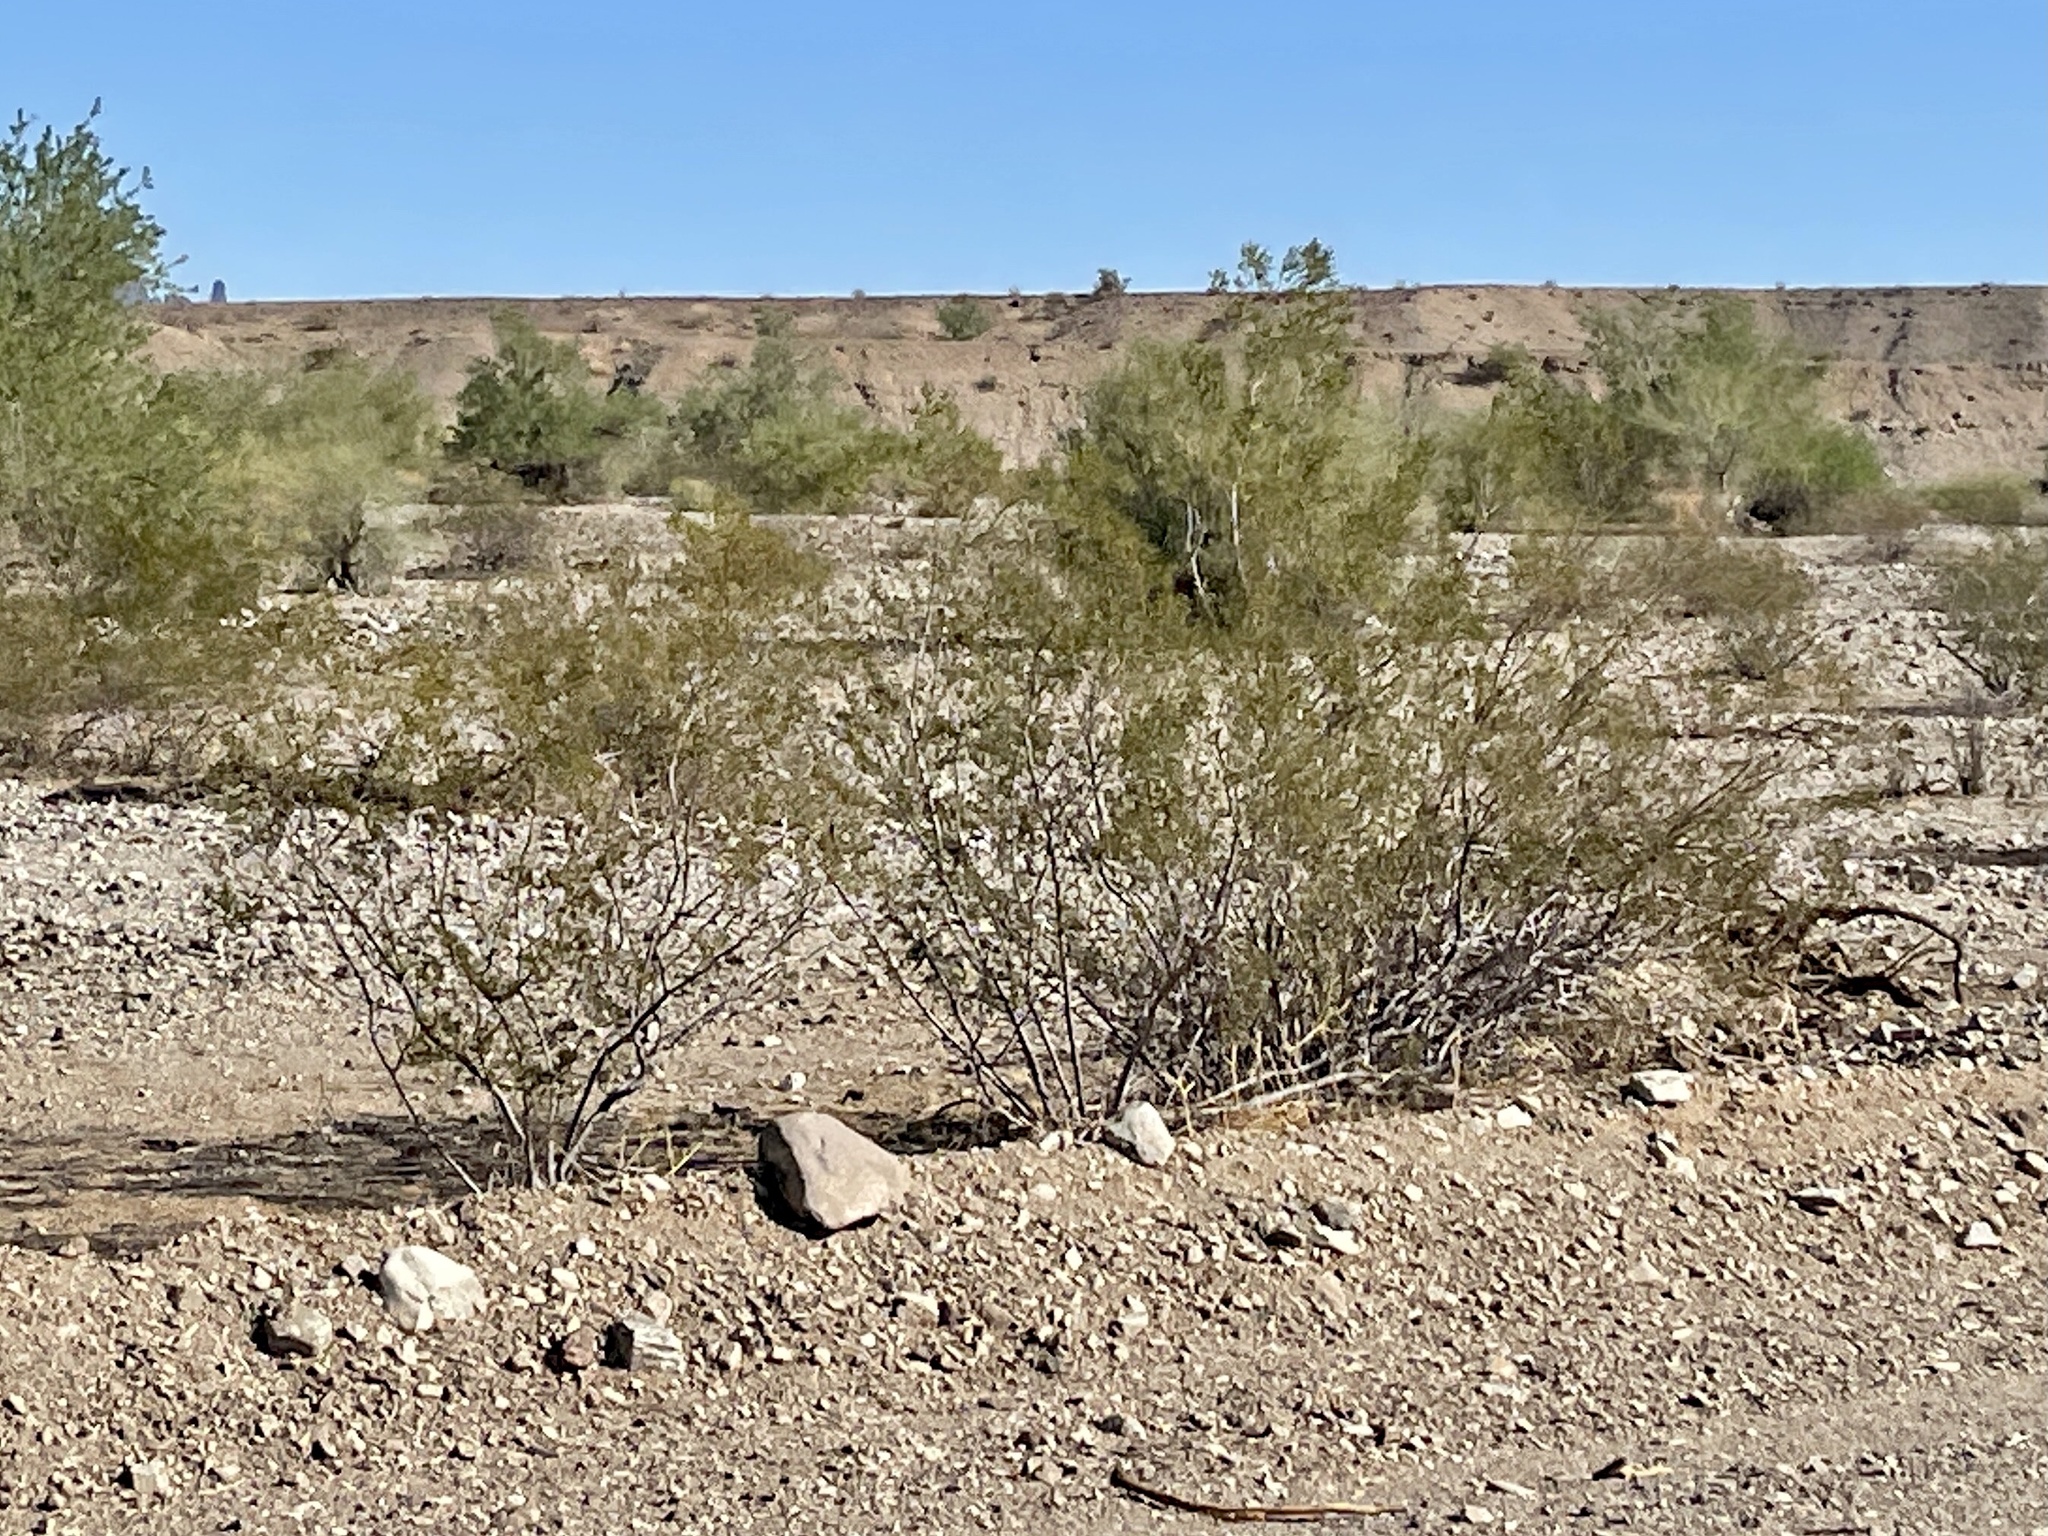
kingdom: Plantae
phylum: Tracheophyta
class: Magnoliopsida
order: Zygophyllales
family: Zygophyllaceae
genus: Larrea
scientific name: Larrea tridentata
